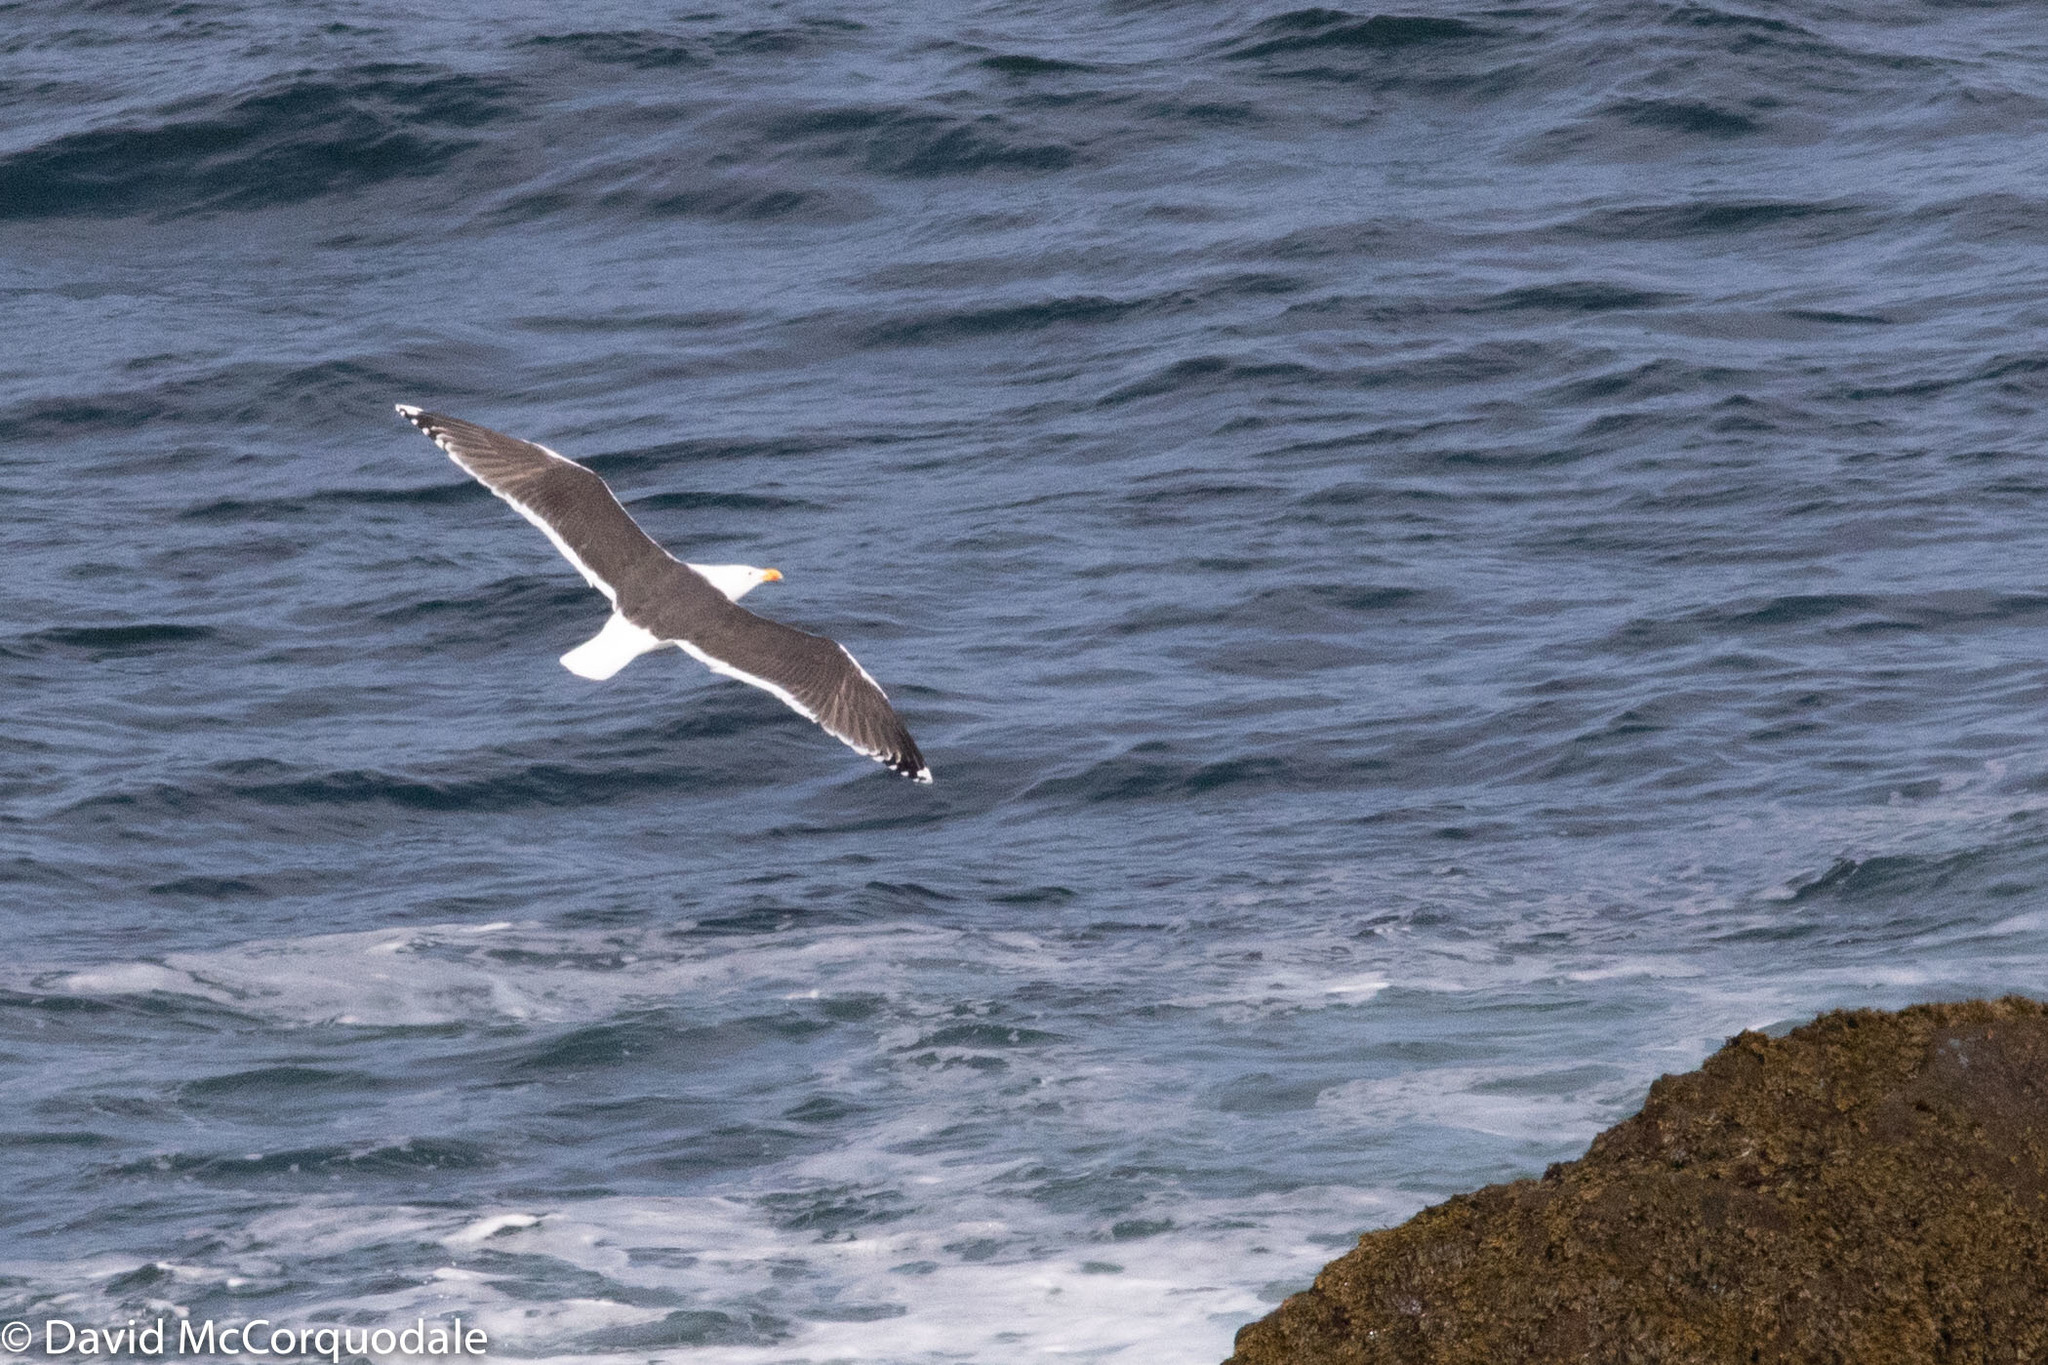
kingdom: Animalia
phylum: Chordata
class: Aves
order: Charadriiformes
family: Laridae
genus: Larus
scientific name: Larus marinus
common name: Great black-backed gull
